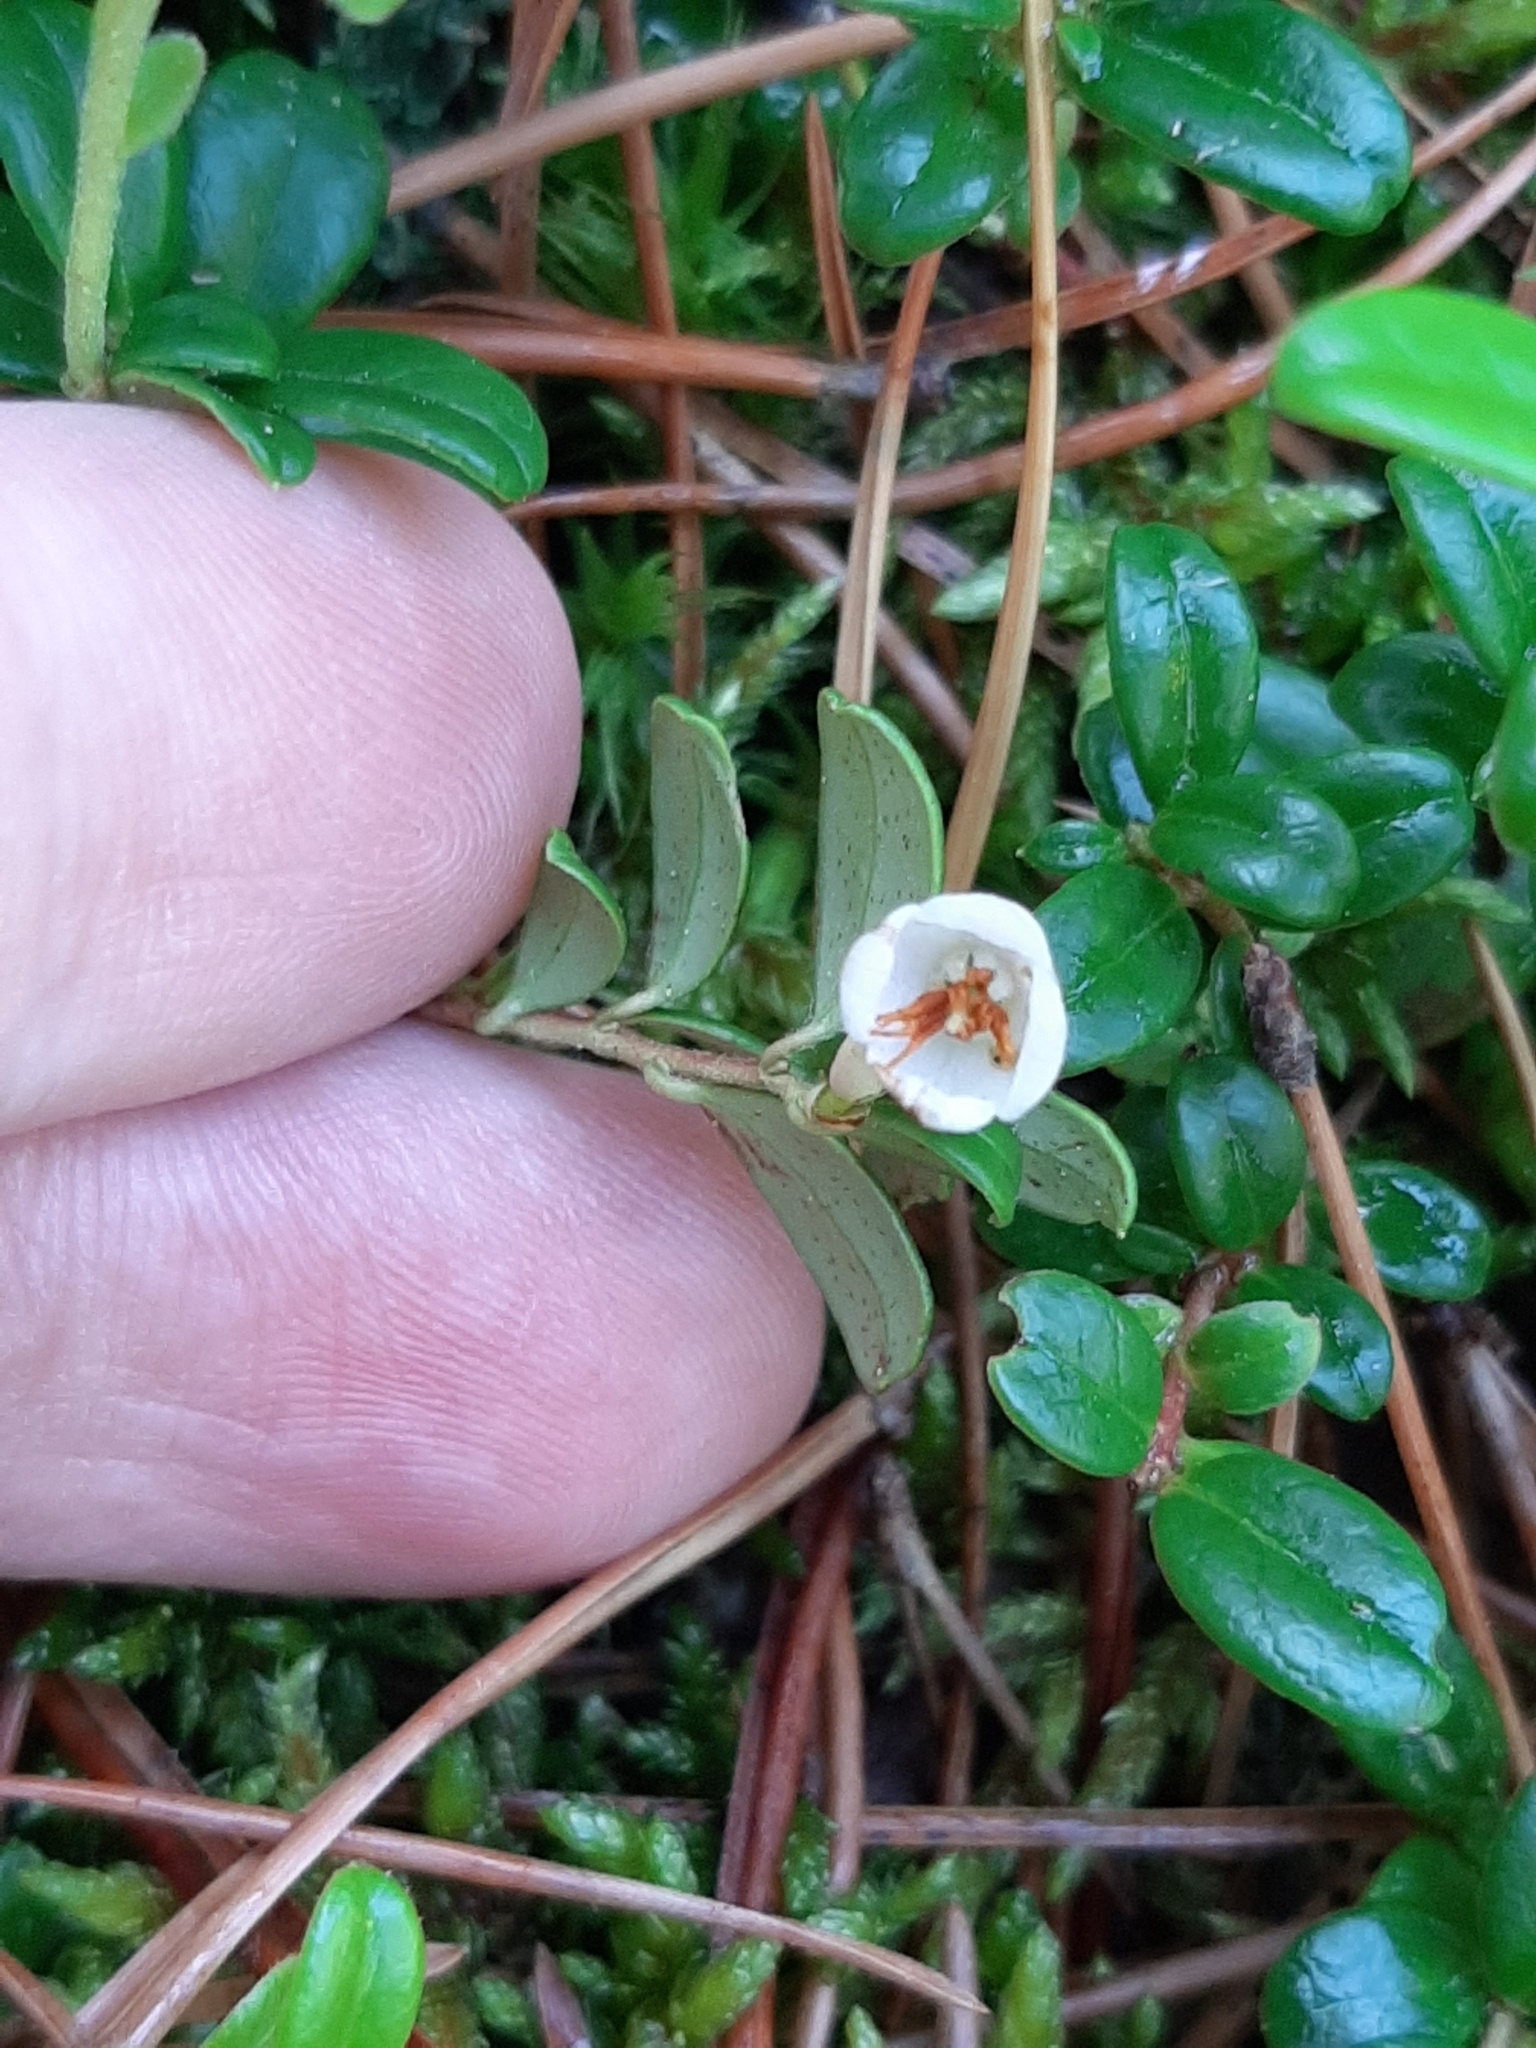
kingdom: Plantae
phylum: Tracheophyta
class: Magnoliopsida
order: Ericales
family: Ericaceae
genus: Vaccinium
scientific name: Vaccinium vitis-idaea
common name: Cowberry
